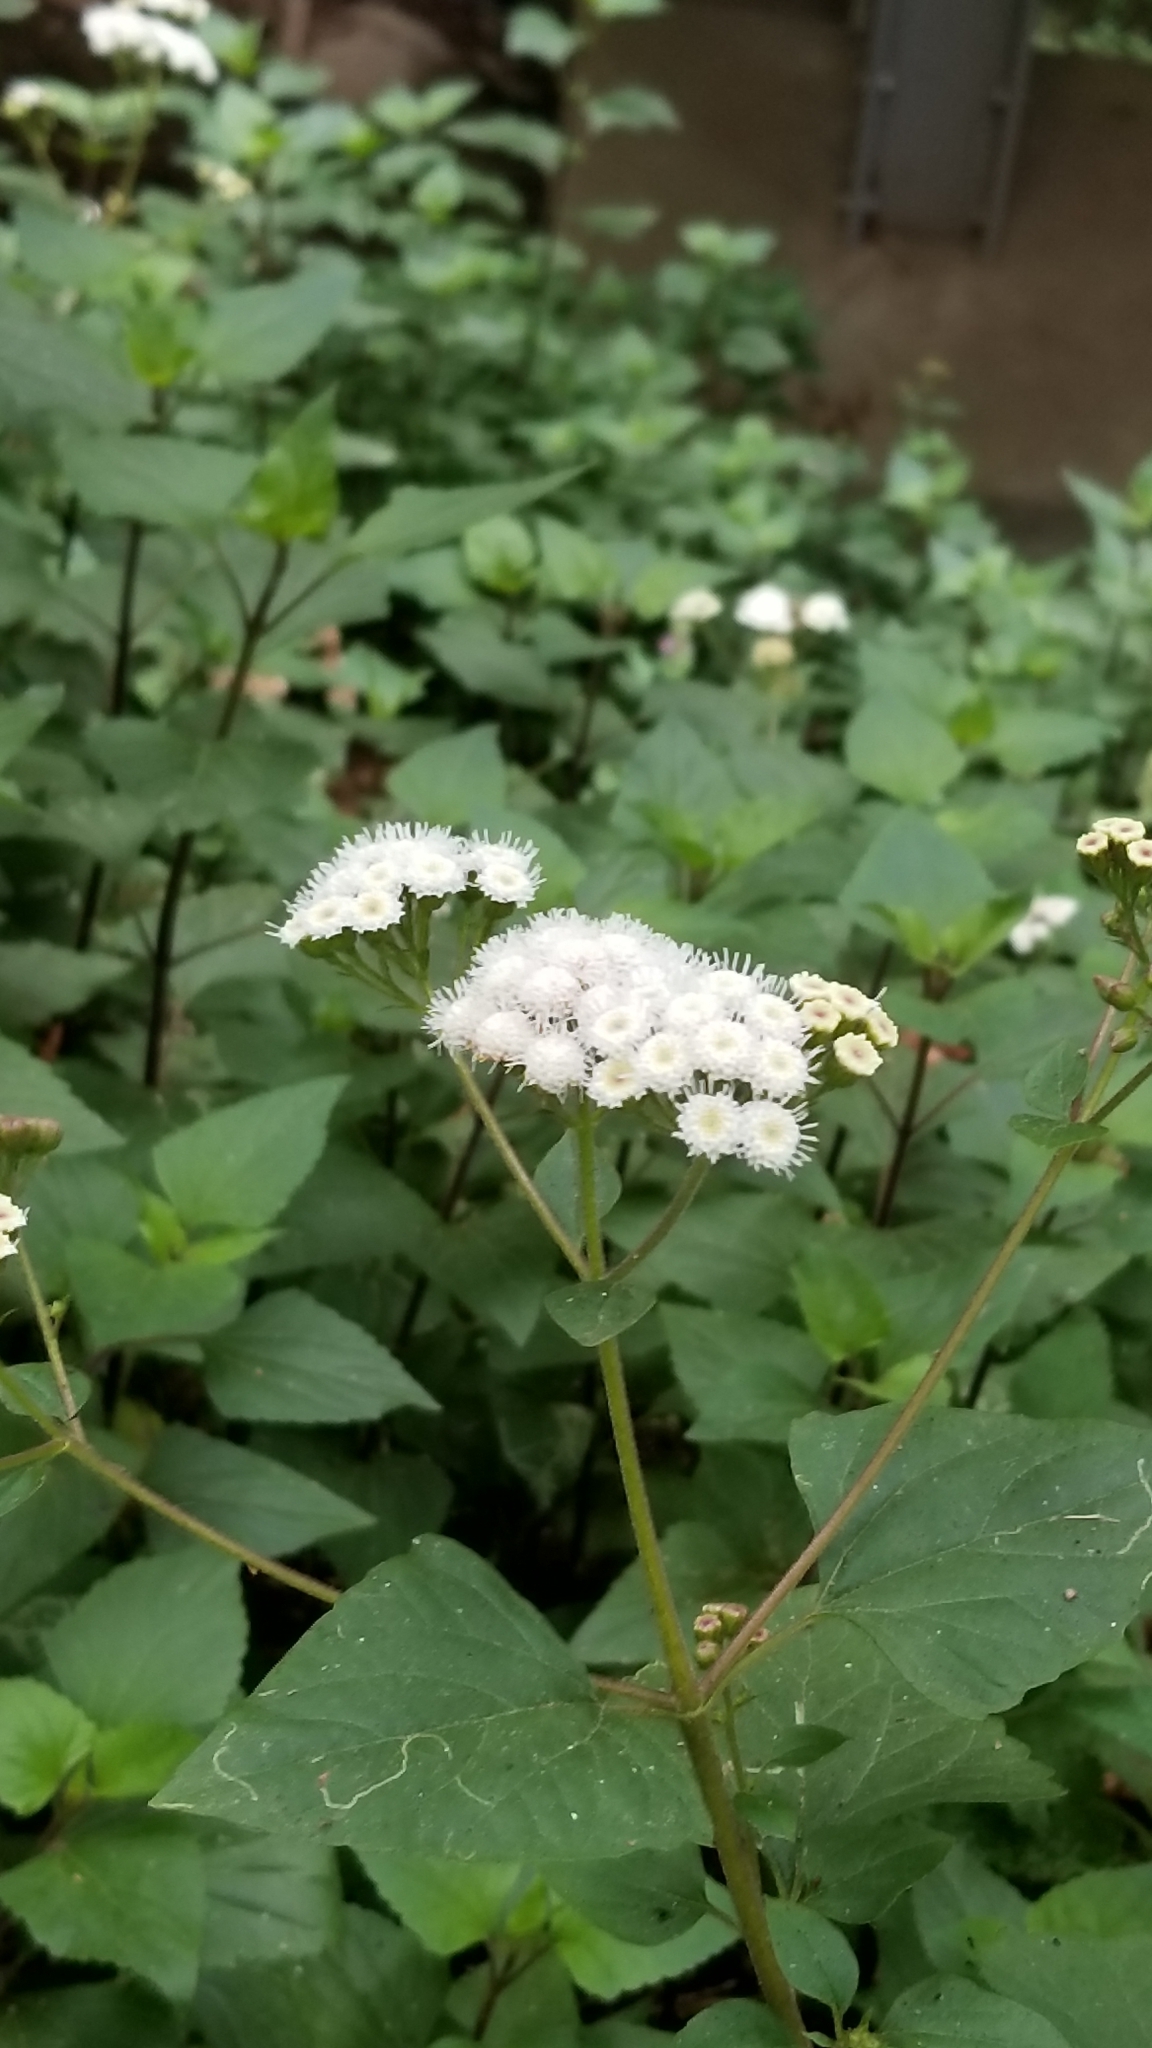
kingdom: Plantae
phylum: Tracheophyta
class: Magnoliopsida
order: Asterales
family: Asteraceae
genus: Ageratina
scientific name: Ageratina adenophora
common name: Sticky snakeroot
